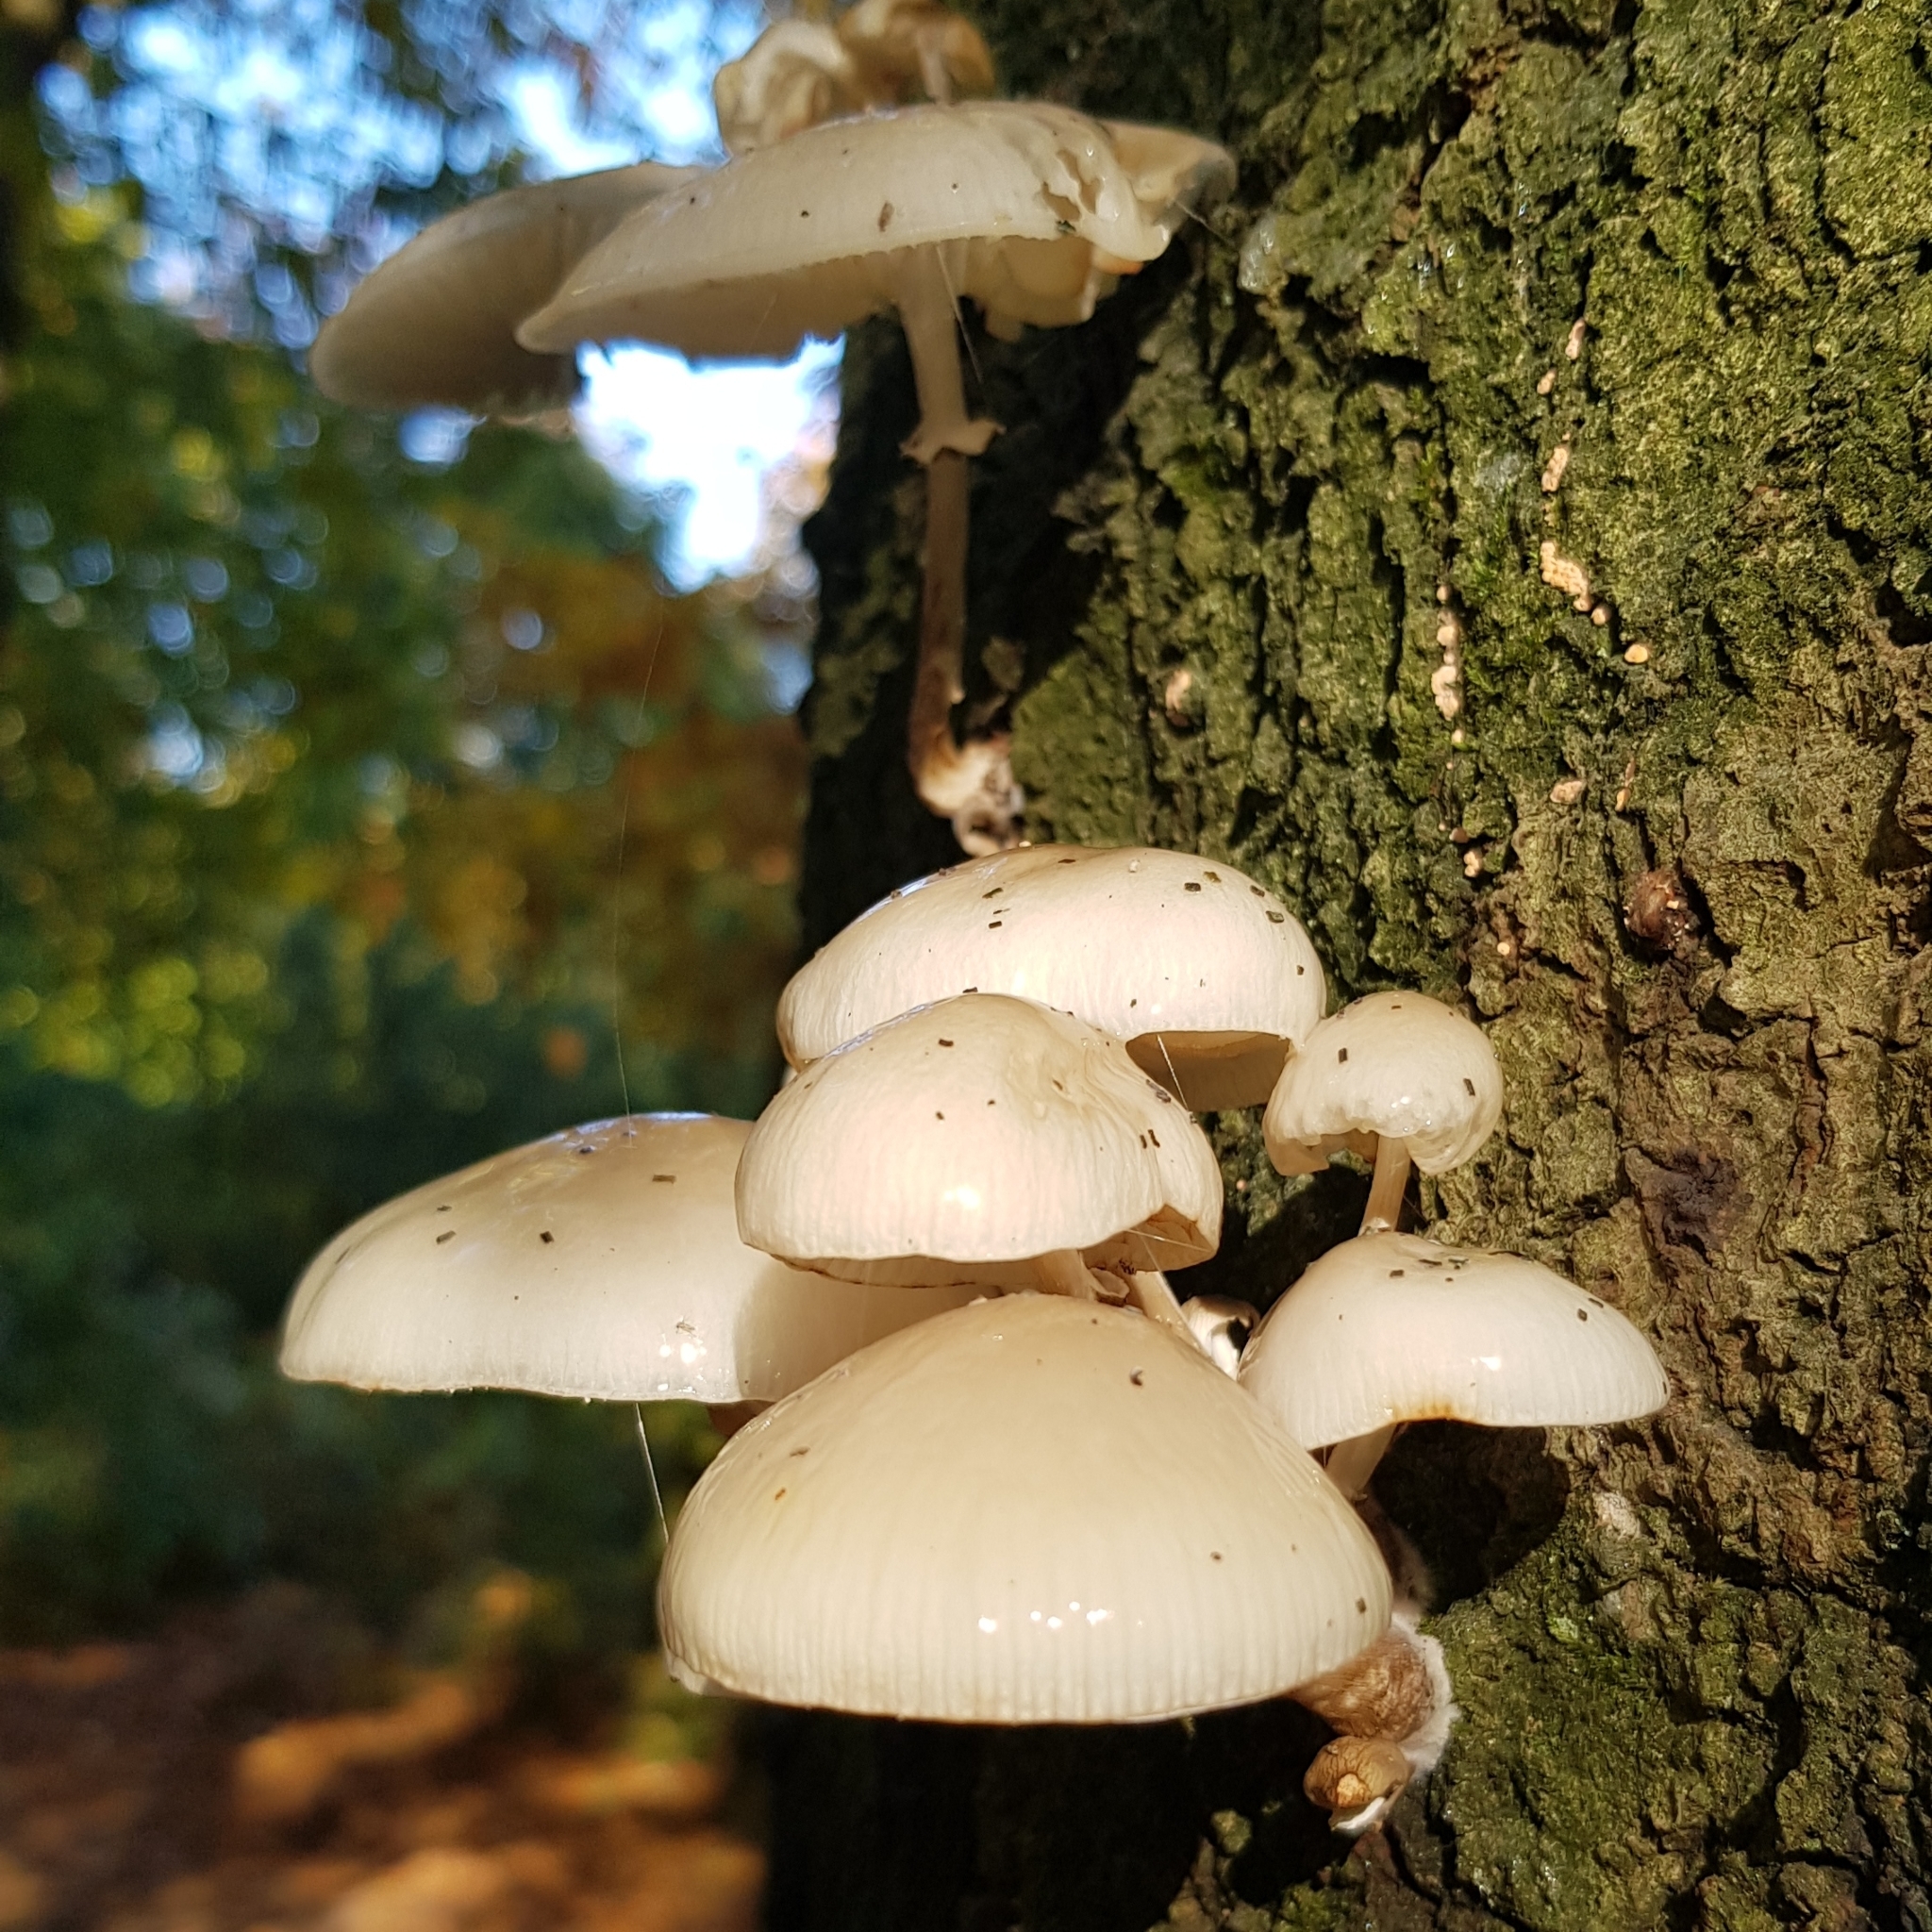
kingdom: Fungi
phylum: Basidiomycota
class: Agaricomycetes
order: Agaricales
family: Physalacriaceae
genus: Mucidula
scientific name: Mucidula mucida
